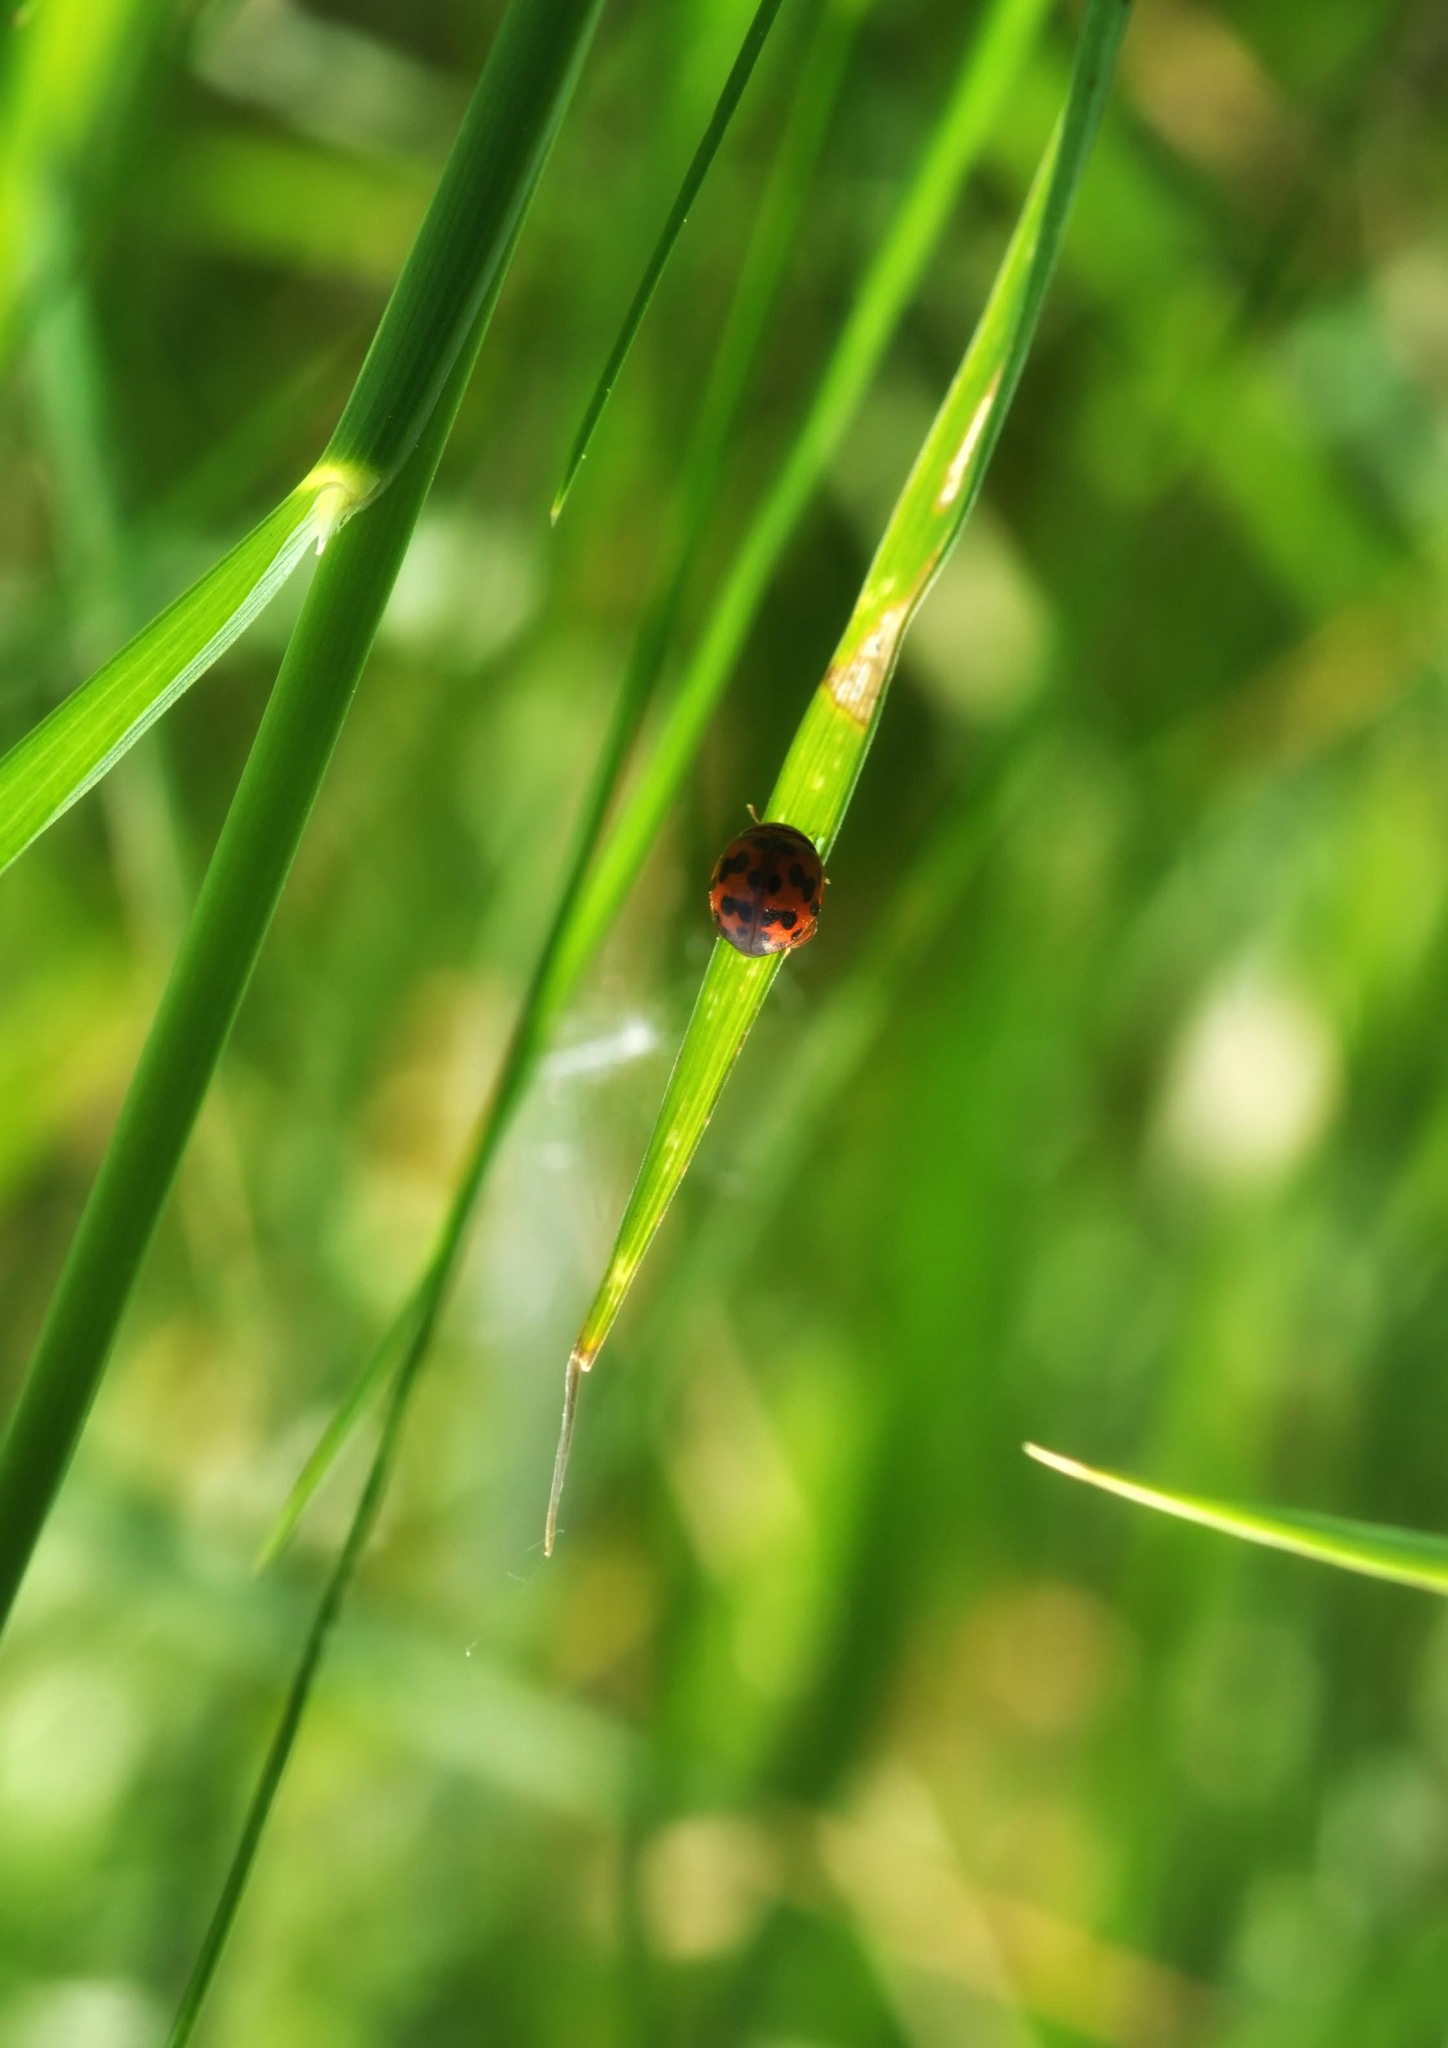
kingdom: Animalia
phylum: Arthropoda
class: Insecta
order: Coleoptera
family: Coccinellidae
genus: Subcoccinella
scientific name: Subcoccinella vigintiquatuorpunctata
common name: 24-spot ladybird
